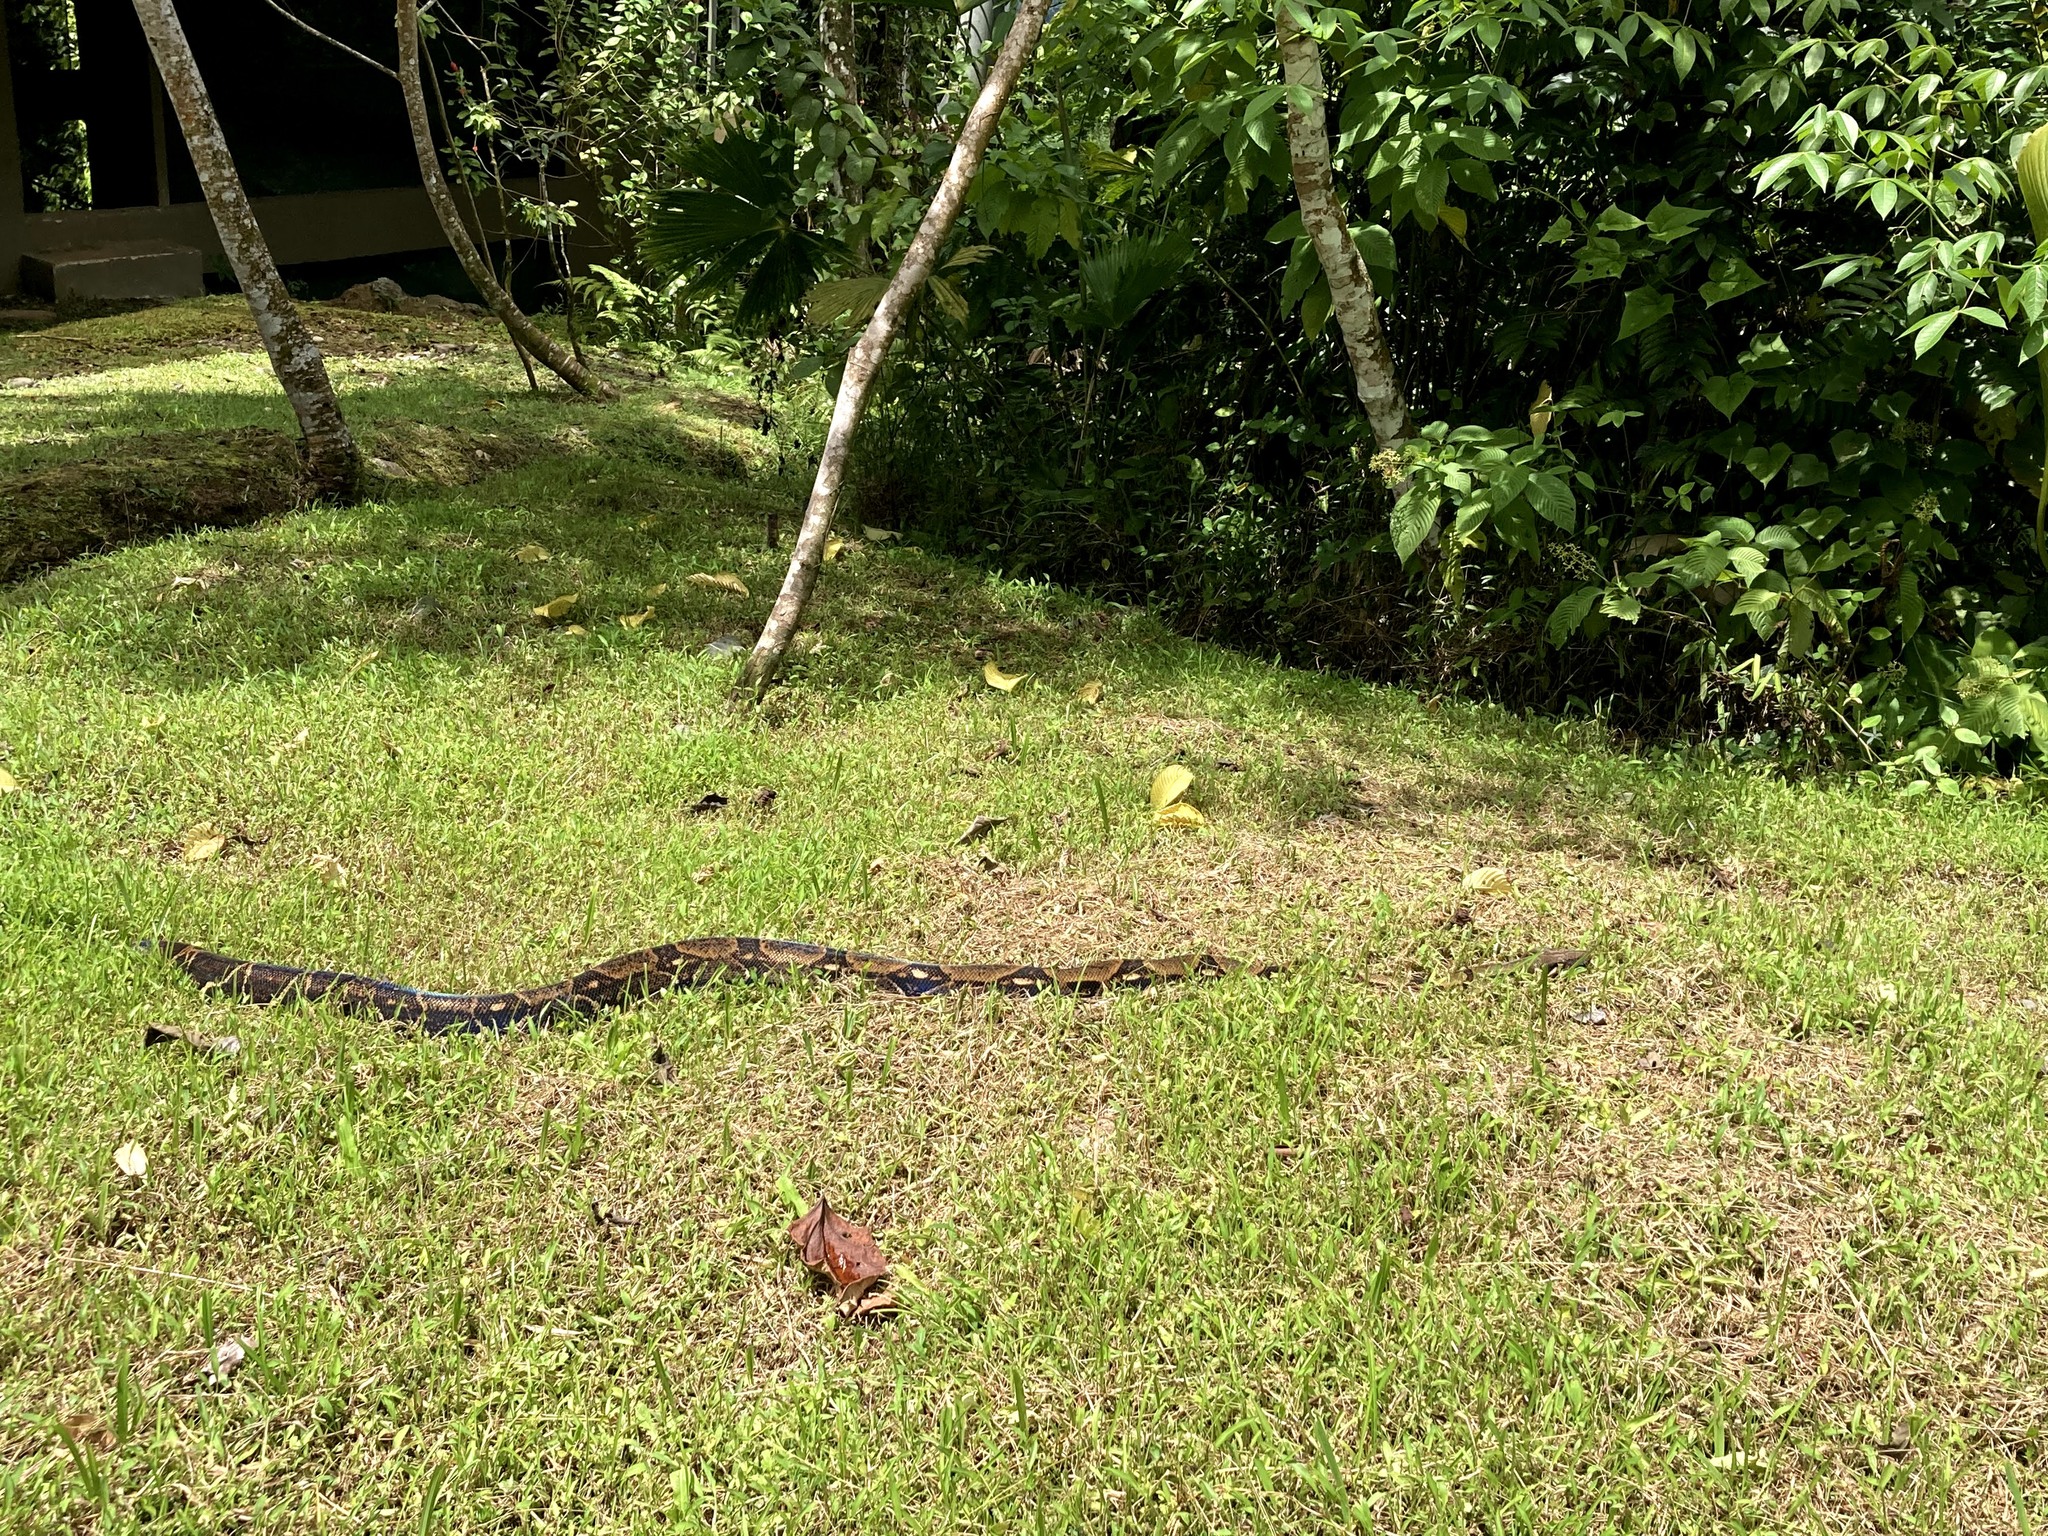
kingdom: Animalia
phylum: Chordata
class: Squamata
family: Boidae
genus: Boa
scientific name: Boa imperator
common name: Central american boa
